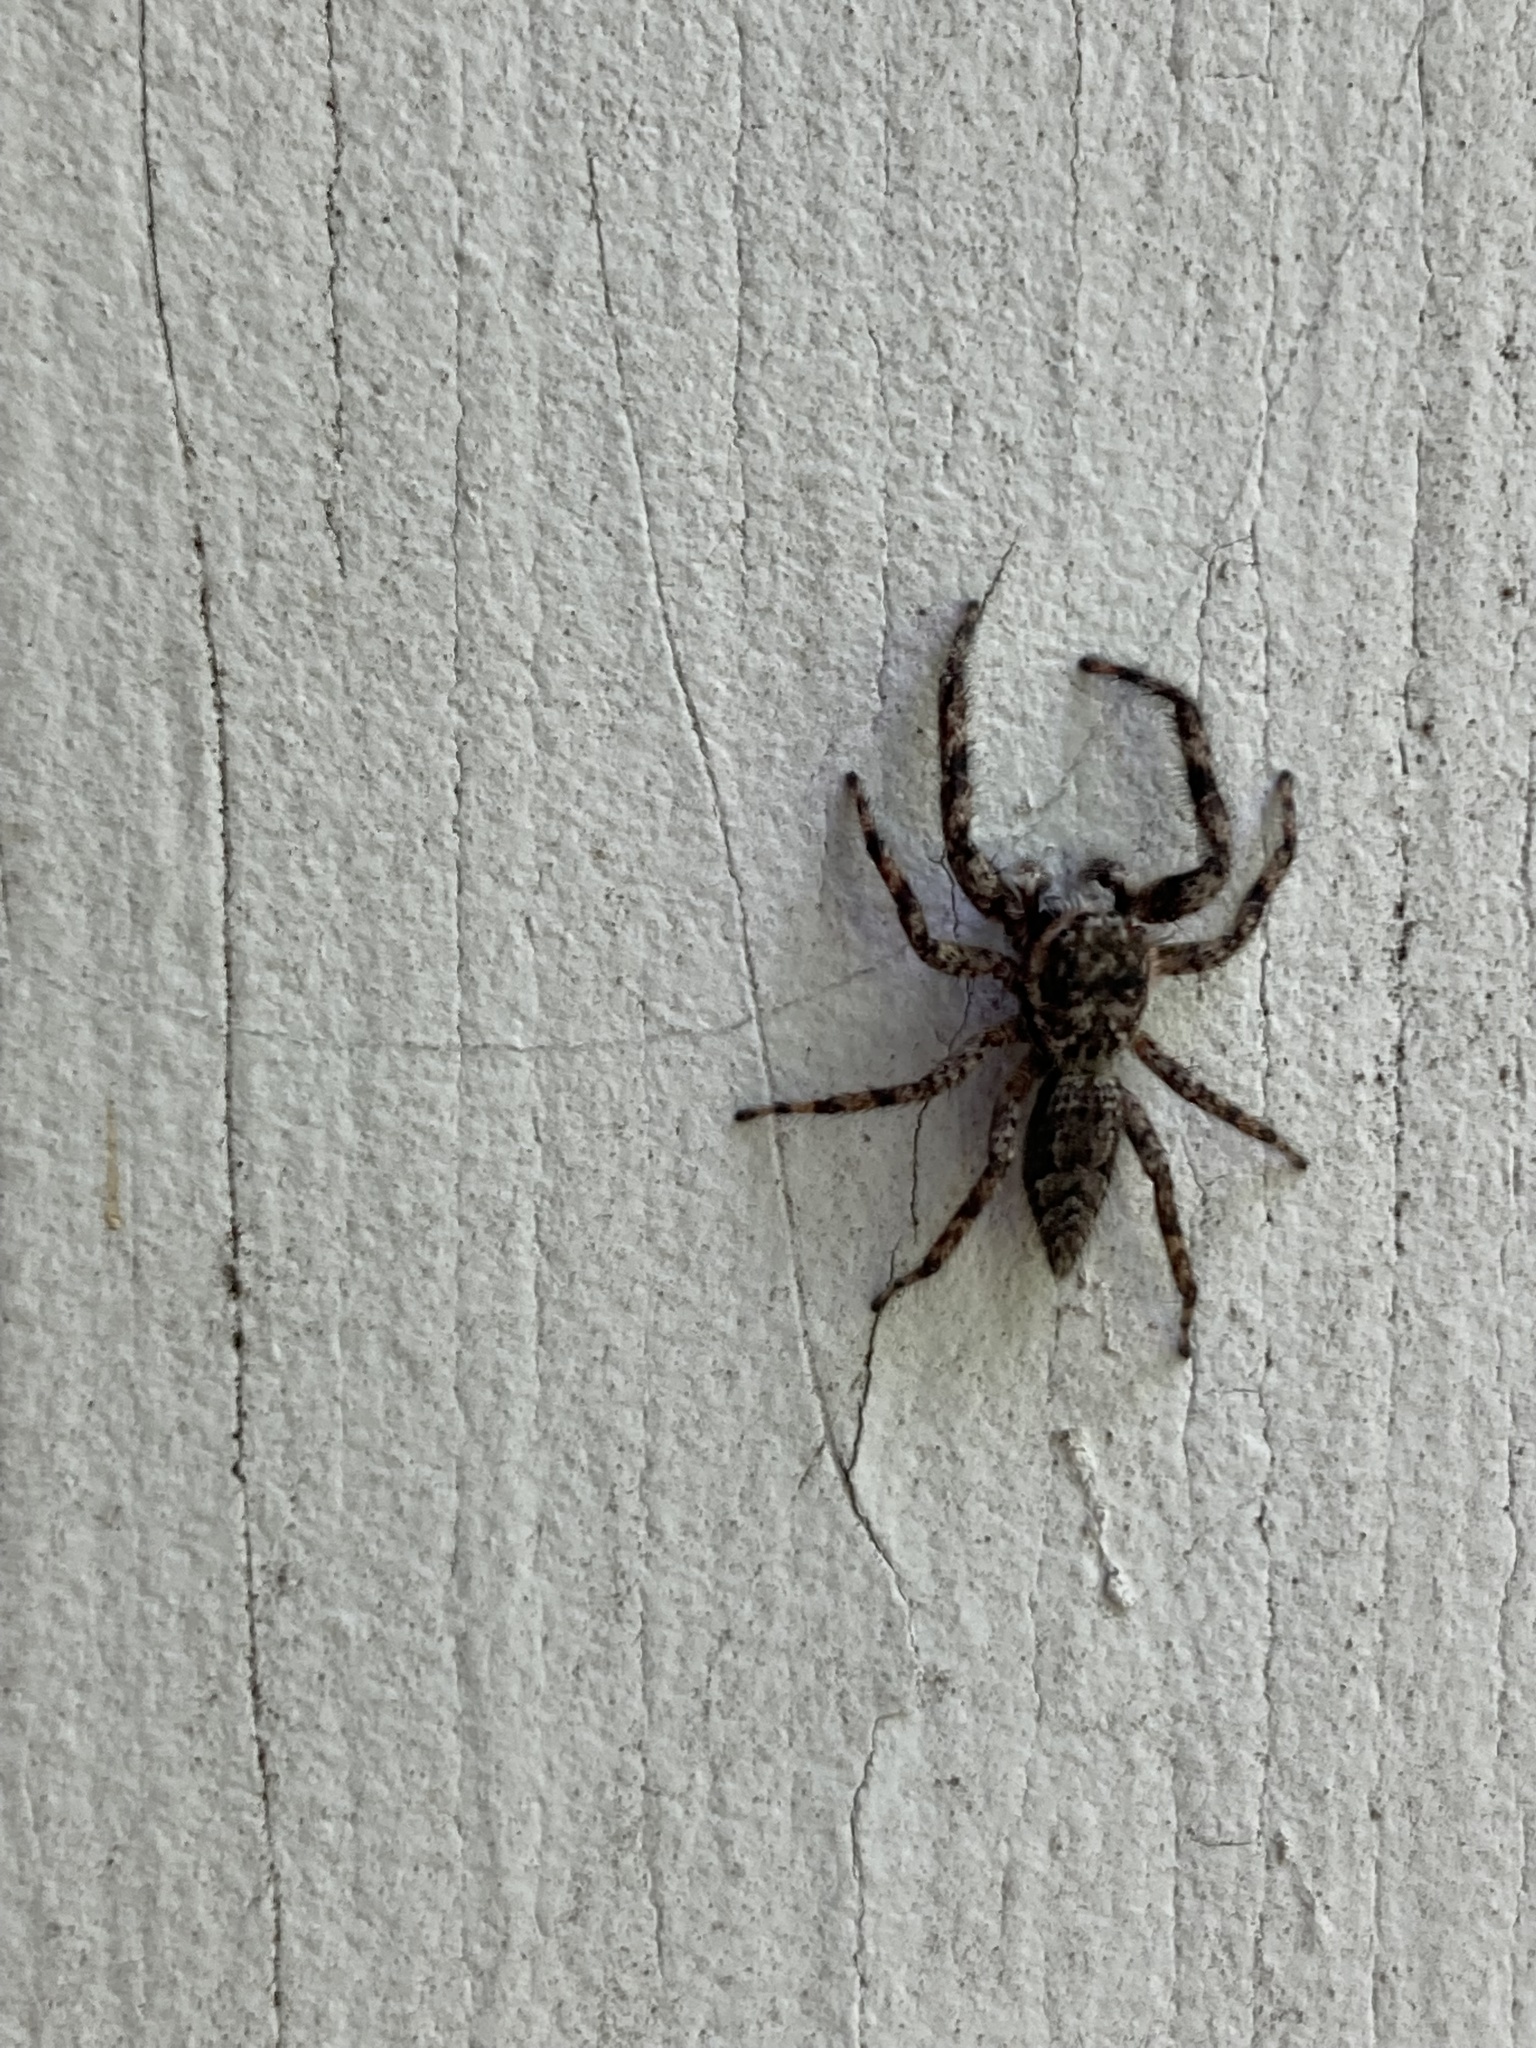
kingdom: Animalia
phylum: Arthropoda
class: Arachnida
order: Araneae
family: Salticidae
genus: Platycryptus
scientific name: Platycryptus undatus
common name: Tan jumping spider
